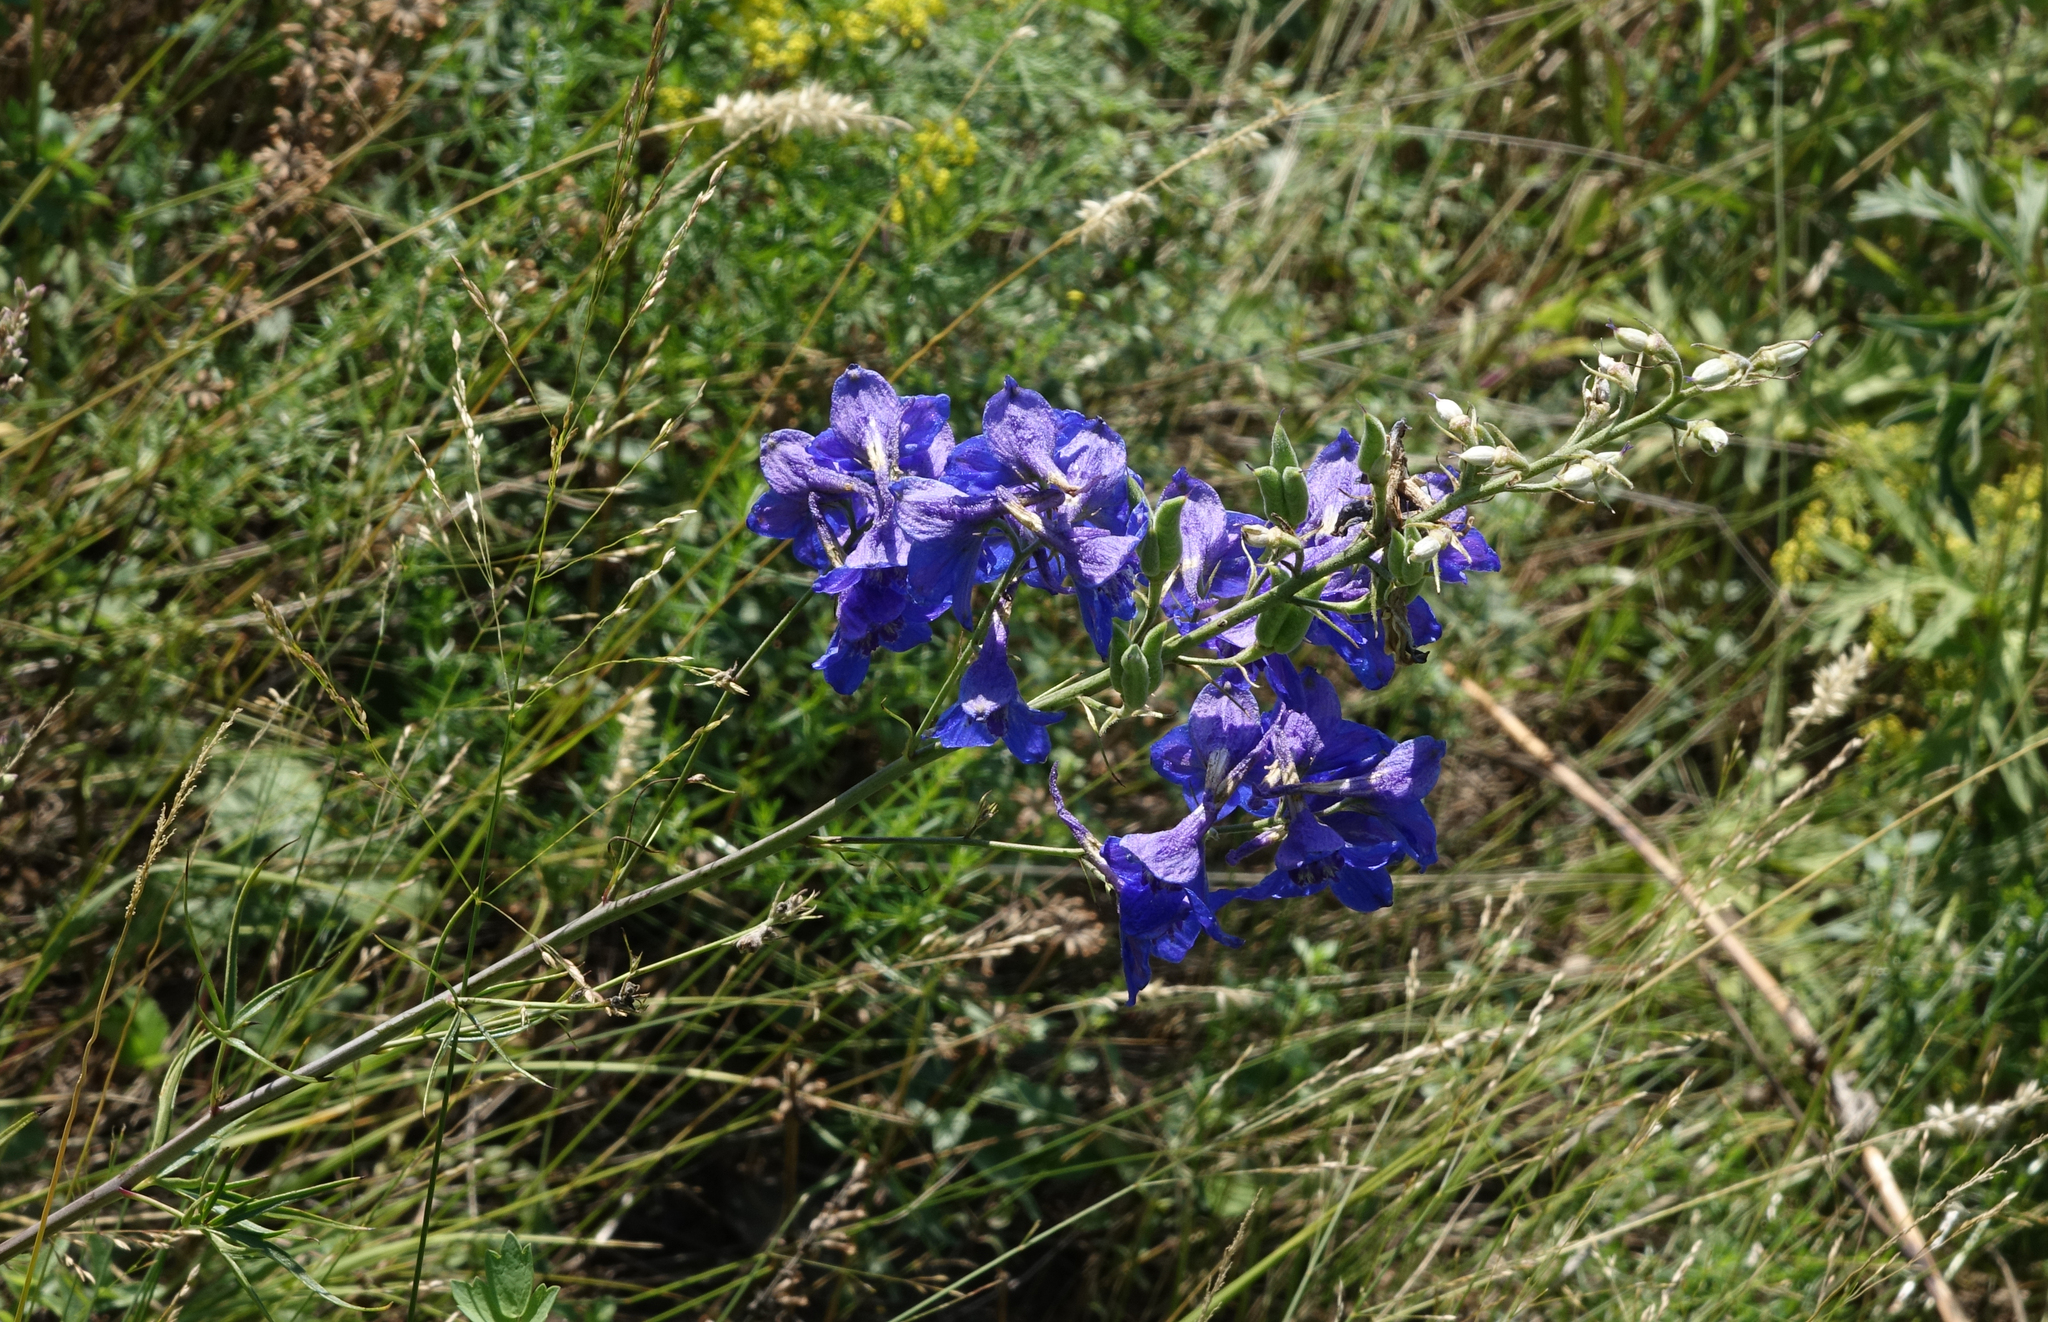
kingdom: Plantae
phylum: Tracheophyta
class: Magnoliopsida
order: Ranunculales
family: Ranunculaceae
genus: Delphinium
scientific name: Delphinium laxiflorum
